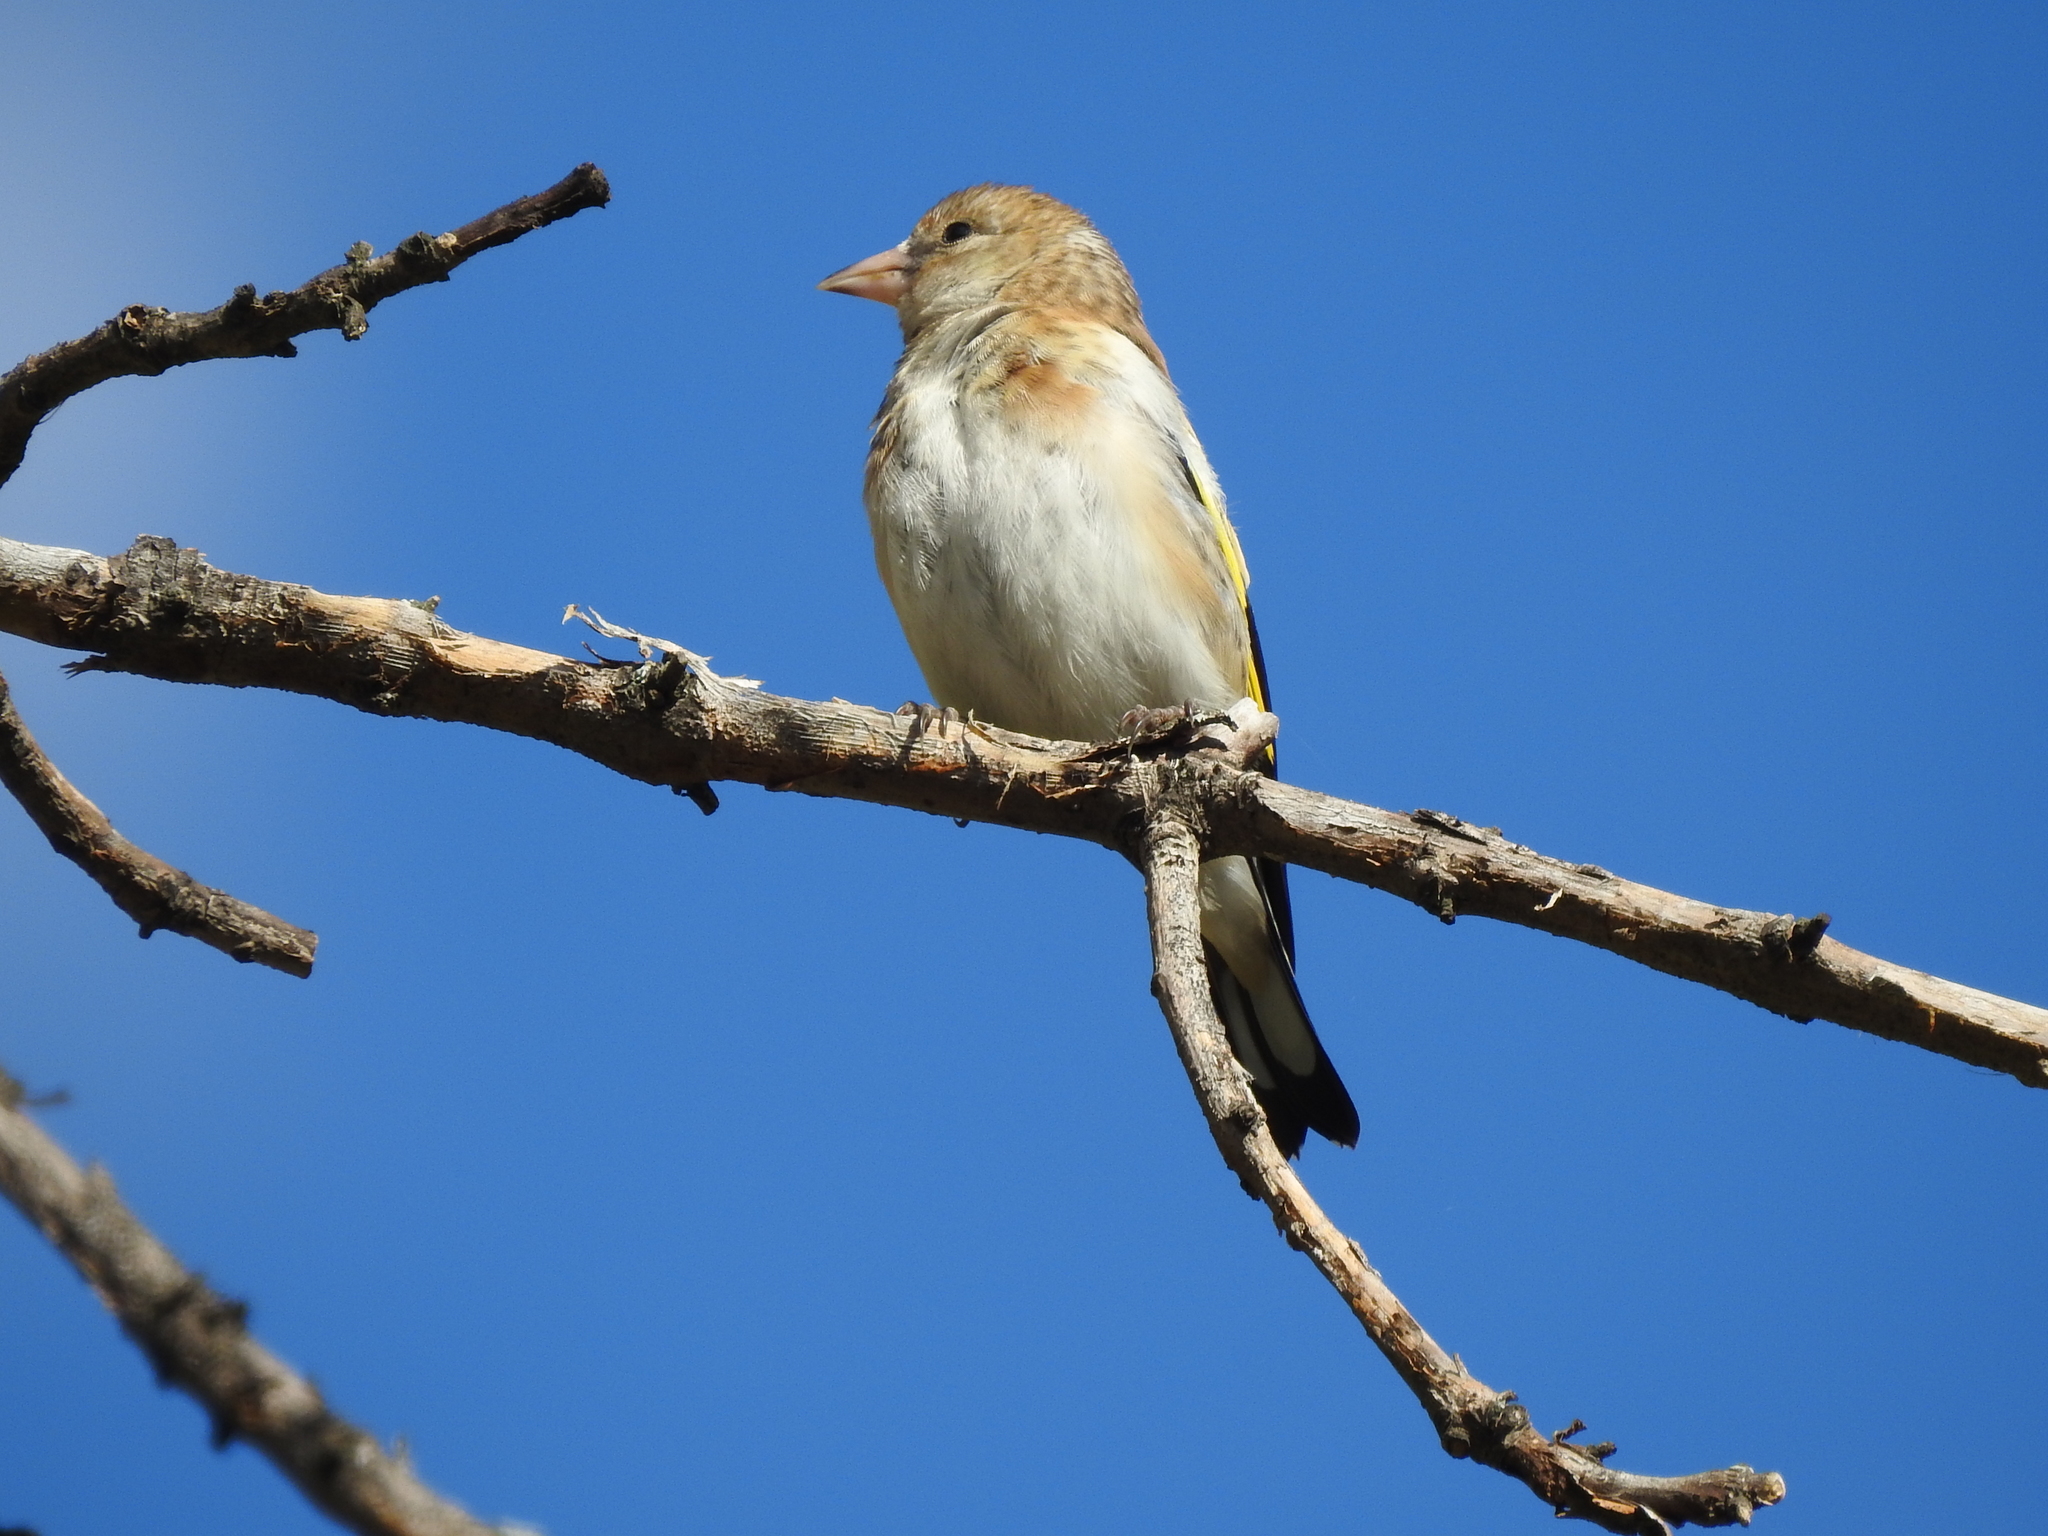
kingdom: Animalia
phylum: Chordata
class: Aves
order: Passeriformes
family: Fringillidae
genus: Carduelis
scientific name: Carduelis carduelis
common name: European goldfinch
